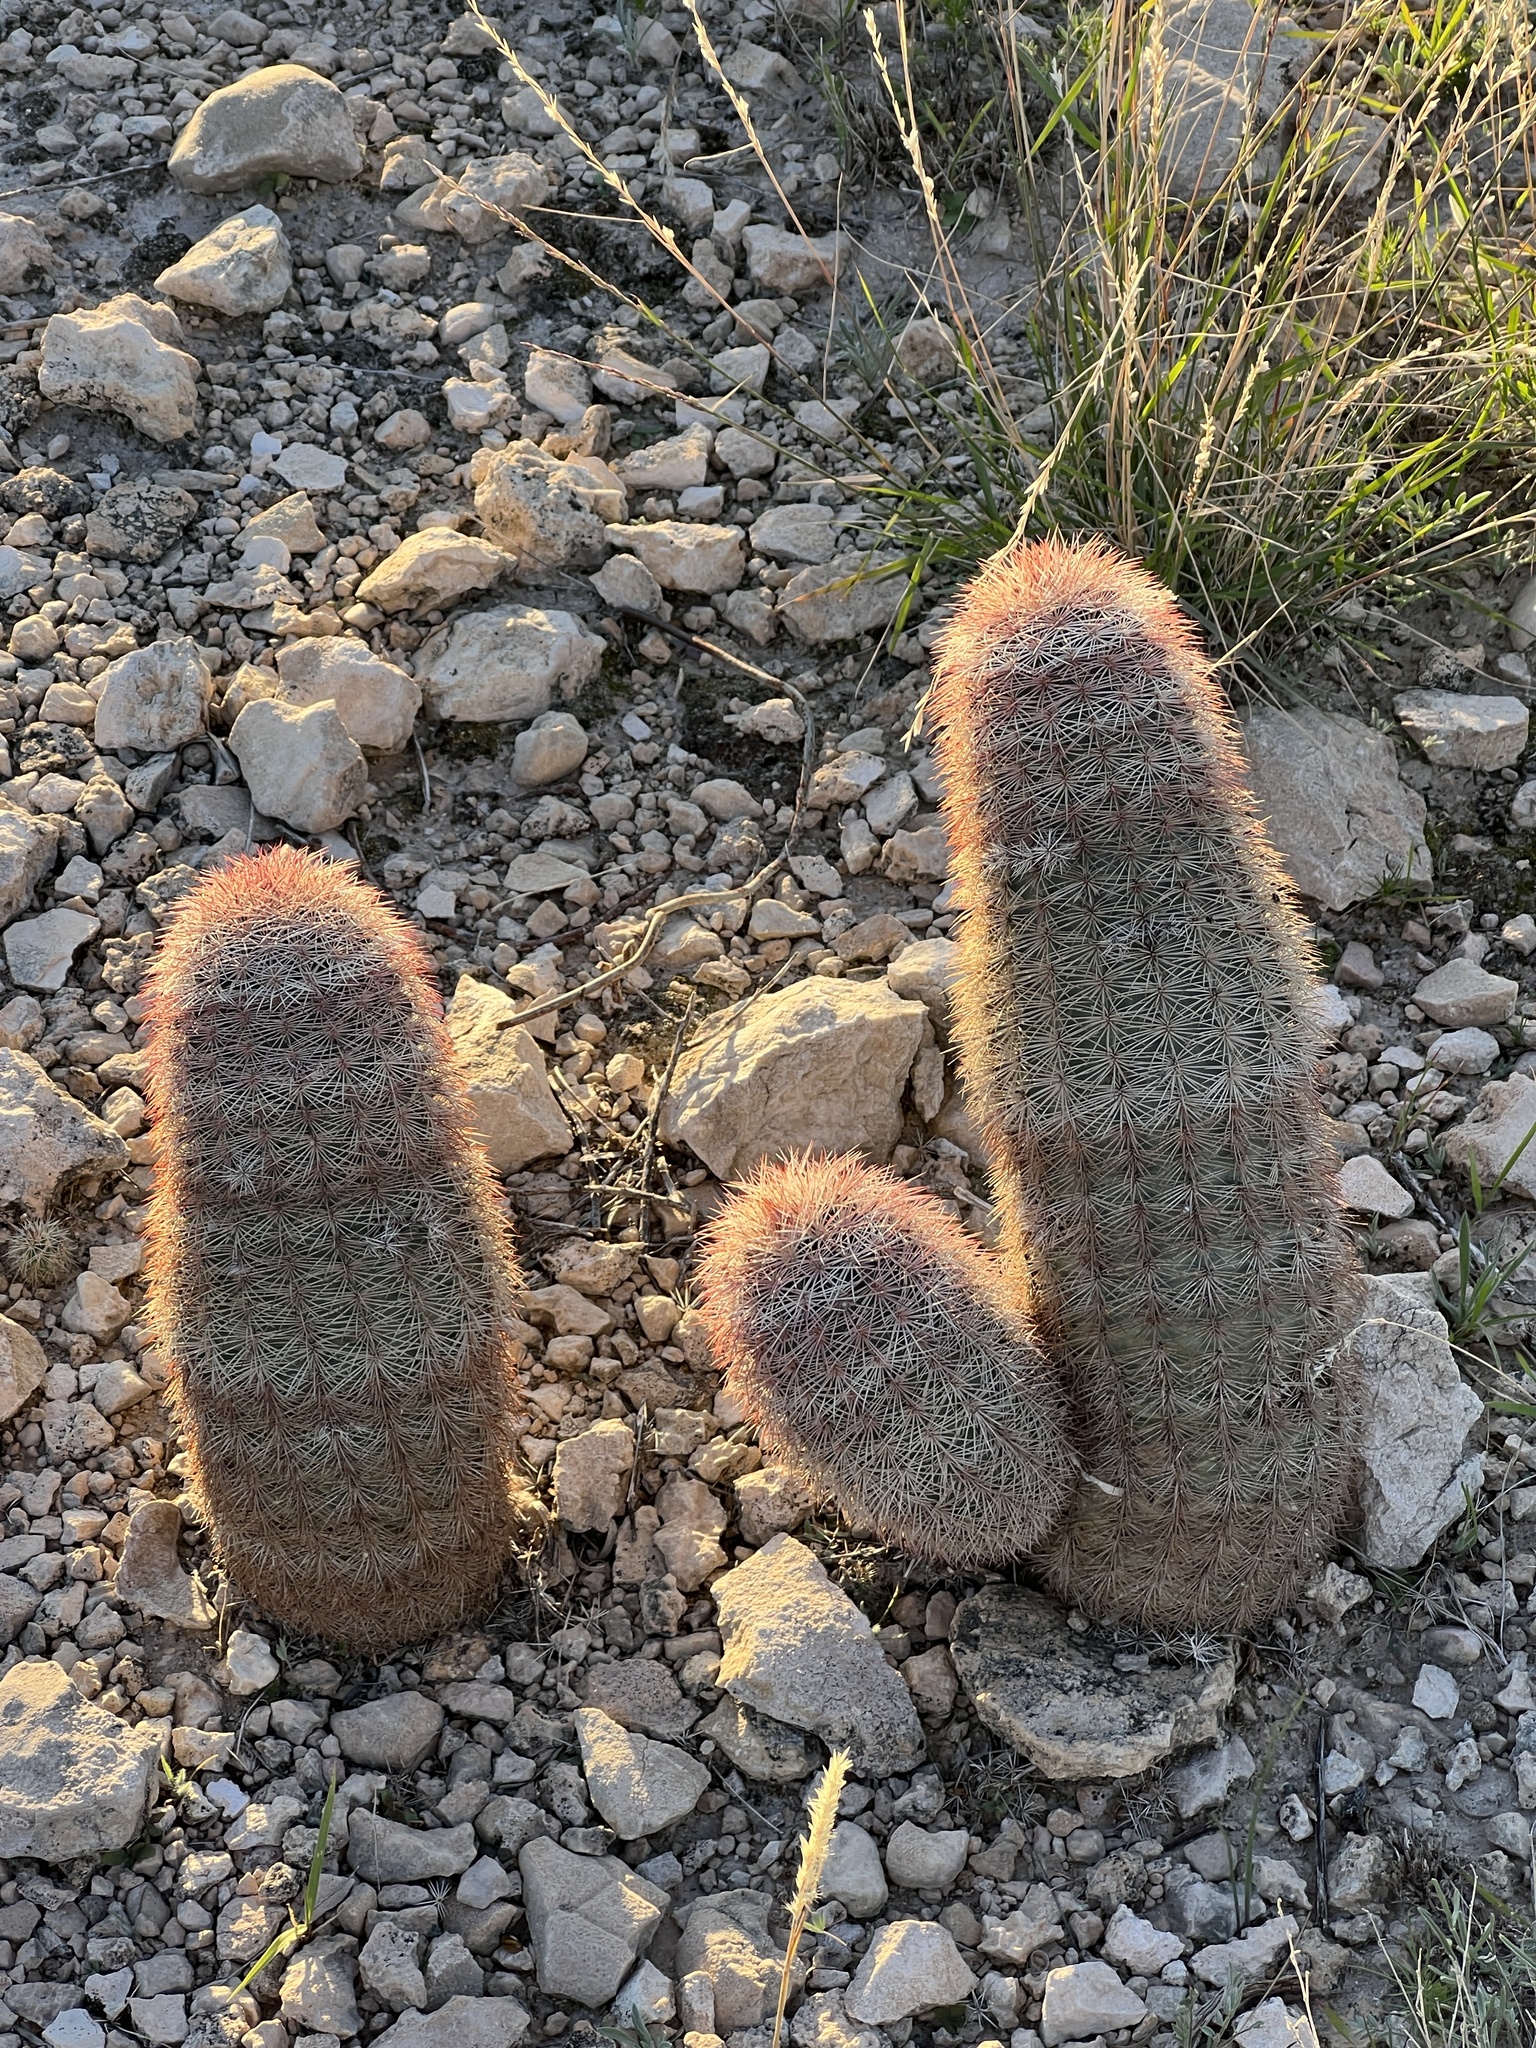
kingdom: Plantae
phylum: Tracheophyta
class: Magnoliopsida
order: Caryophyllales
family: Cactaceae
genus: Echinocereus
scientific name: Echinocereus dasyacanthus
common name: Spiny hedgehog cactus
